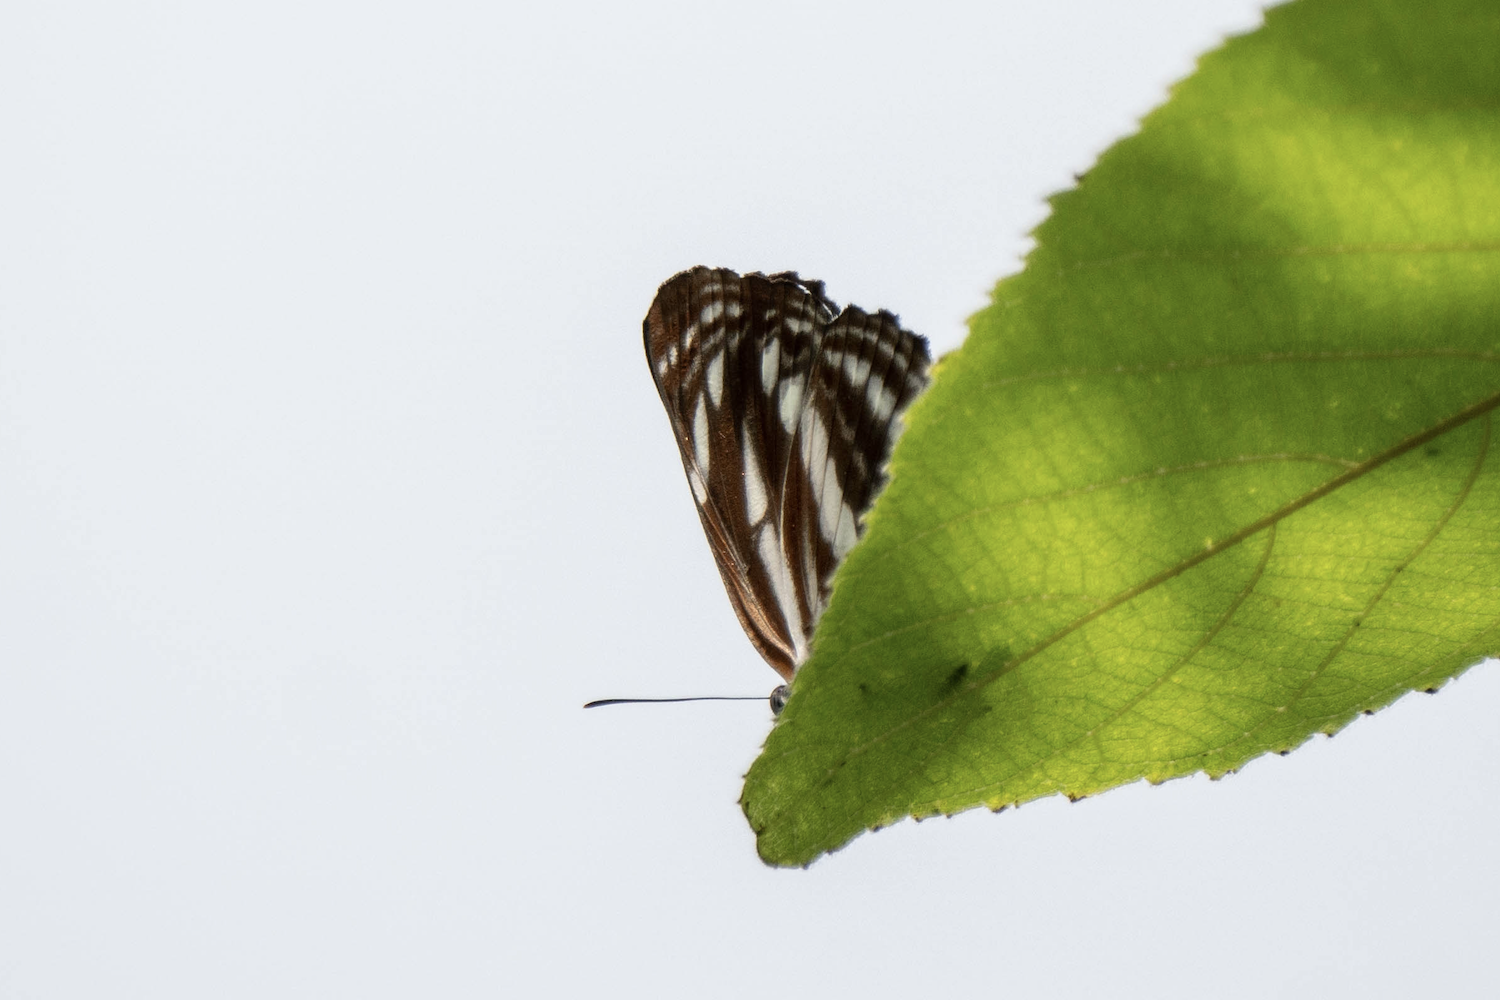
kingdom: Animalia
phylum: Arthropoda
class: Insecta
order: Lepidoptera
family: Nymphalidae
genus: Neptis
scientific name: Neptis clinia
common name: Southern sullied sailer
